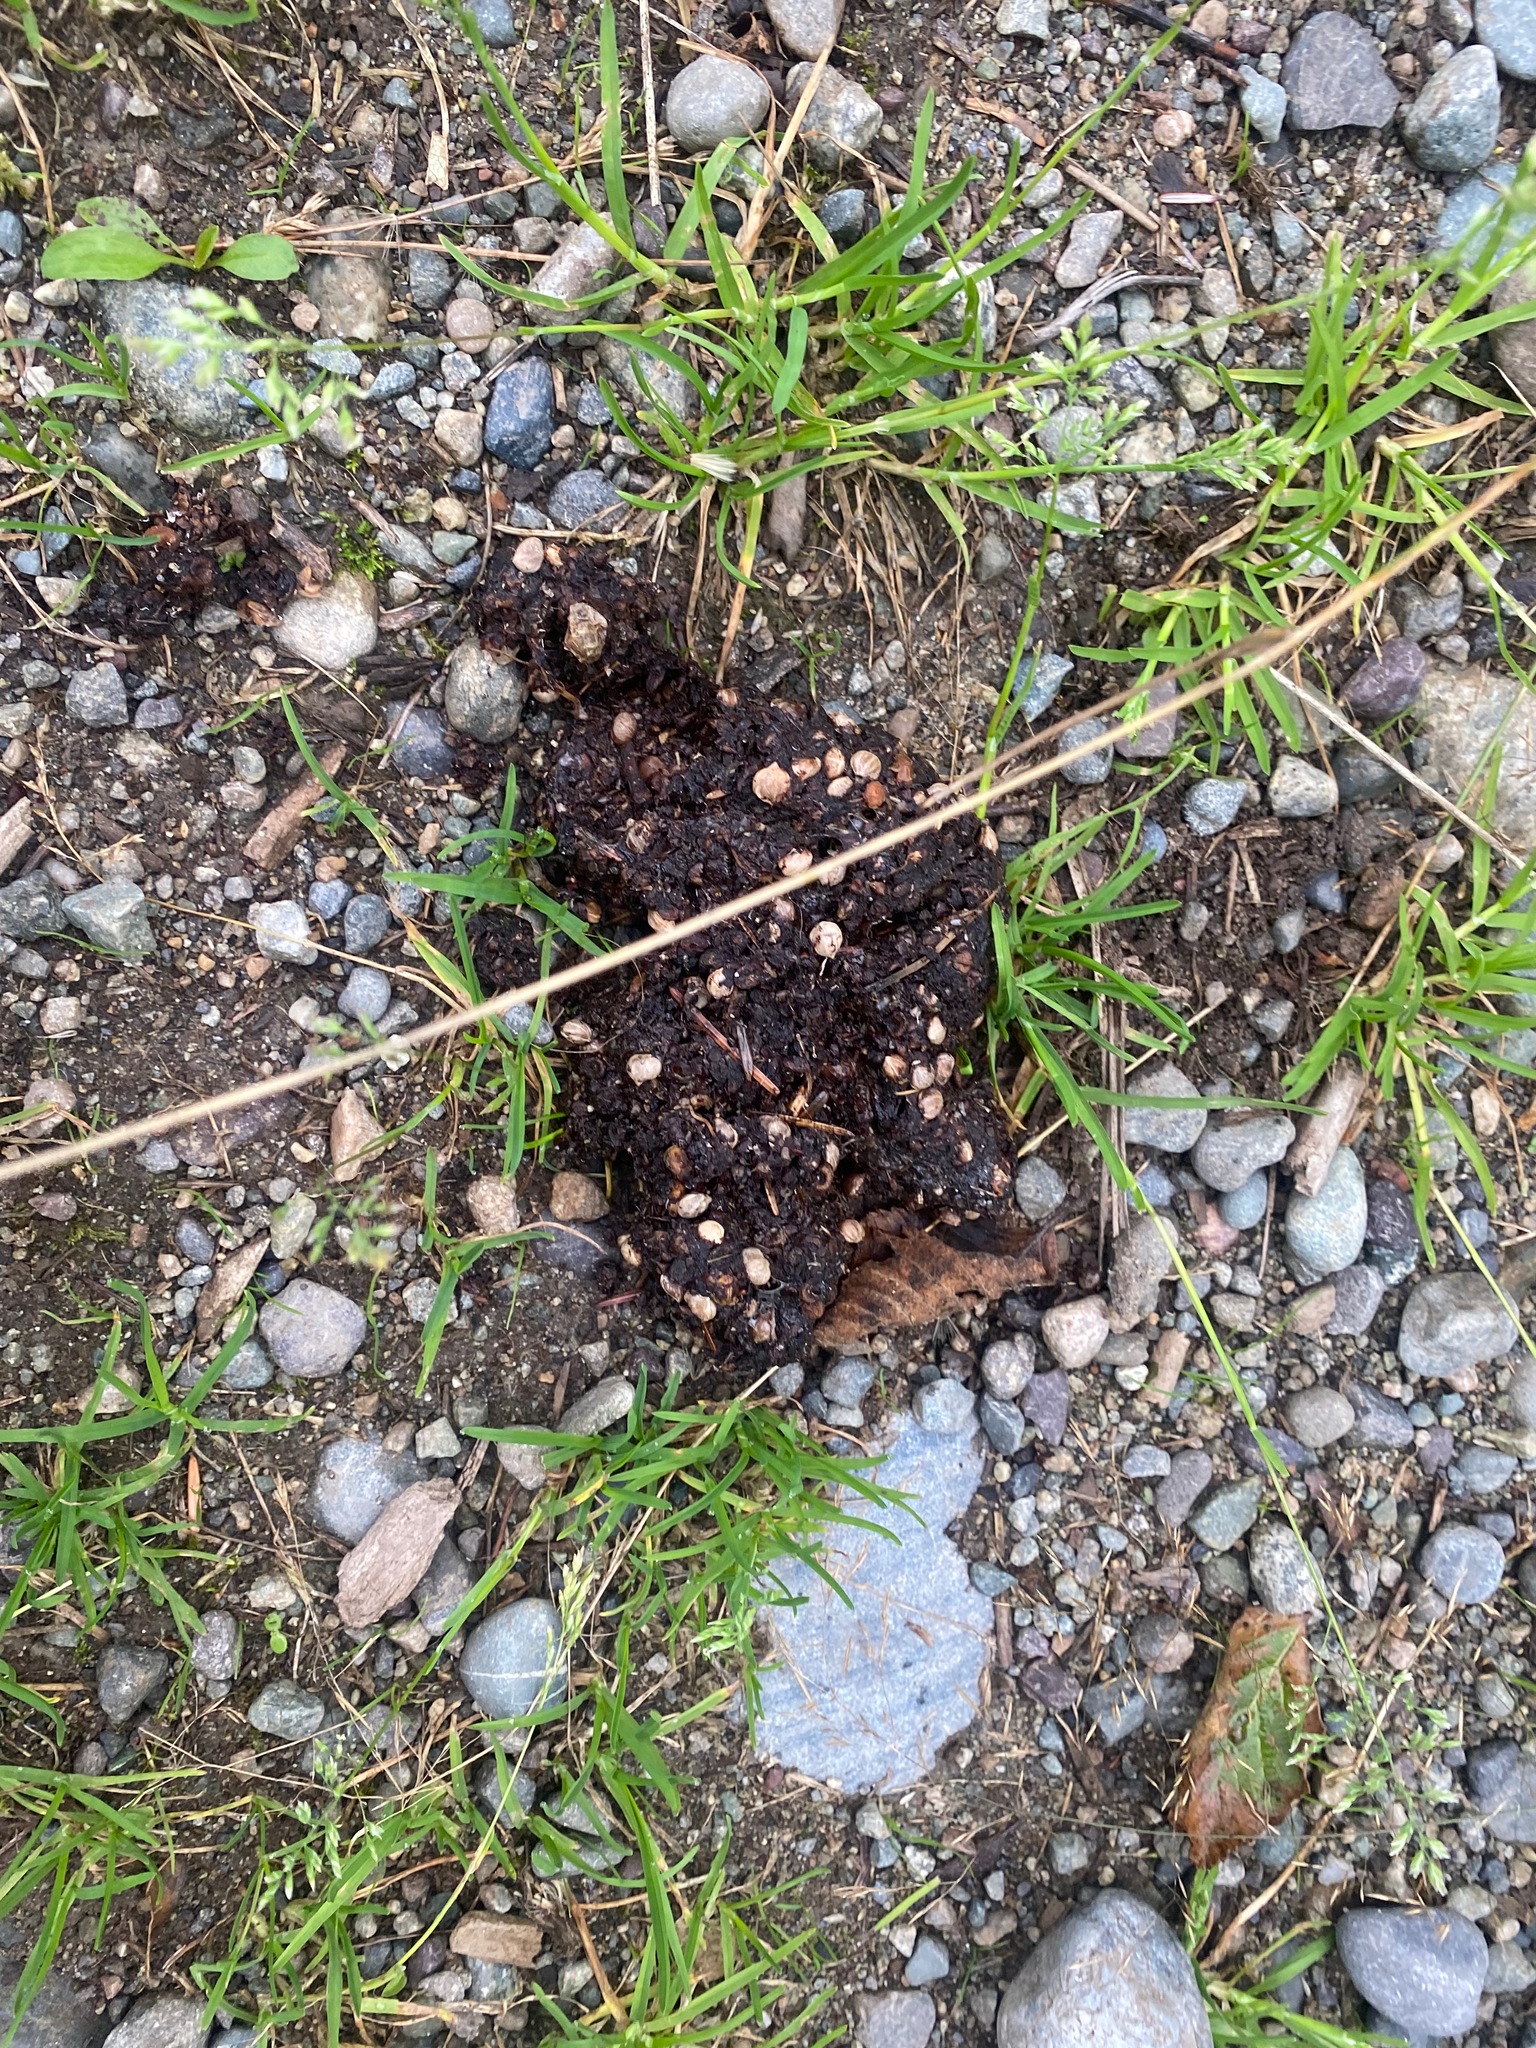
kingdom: Animalia
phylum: Chordata
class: Mammalia
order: Carnivora
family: Ursidae
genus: Ursus
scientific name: Ursus americanus
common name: American black bear
